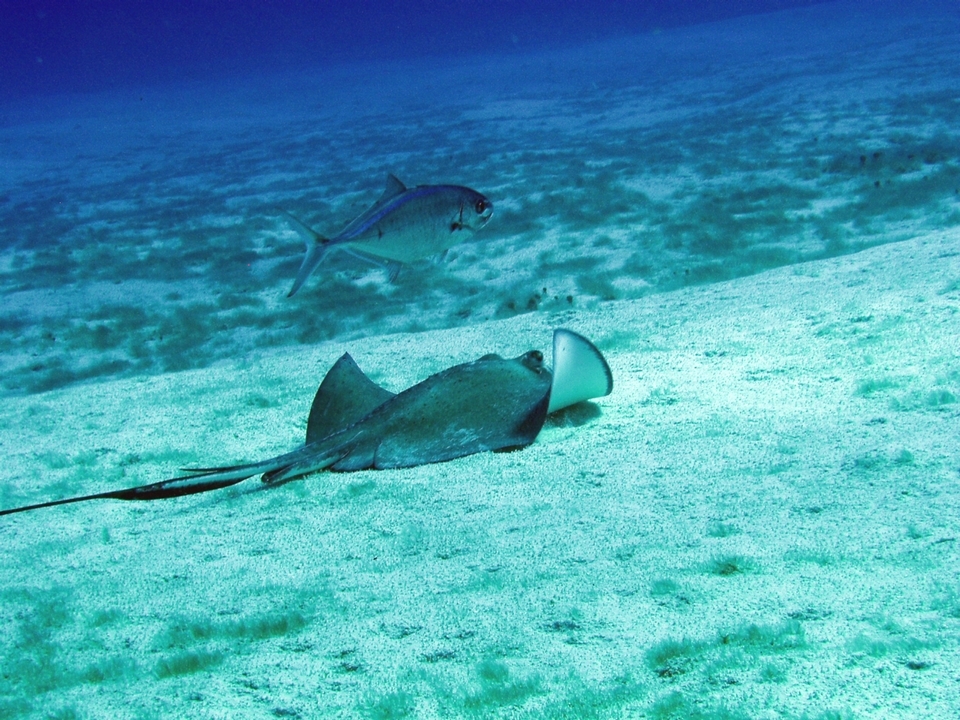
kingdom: Animalia
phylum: Chordata
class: Elasmobranchii
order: Myliobatiformes
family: Dasyatidae
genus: Hypanus
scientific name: Hypanus americanus
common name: Southern stingray
